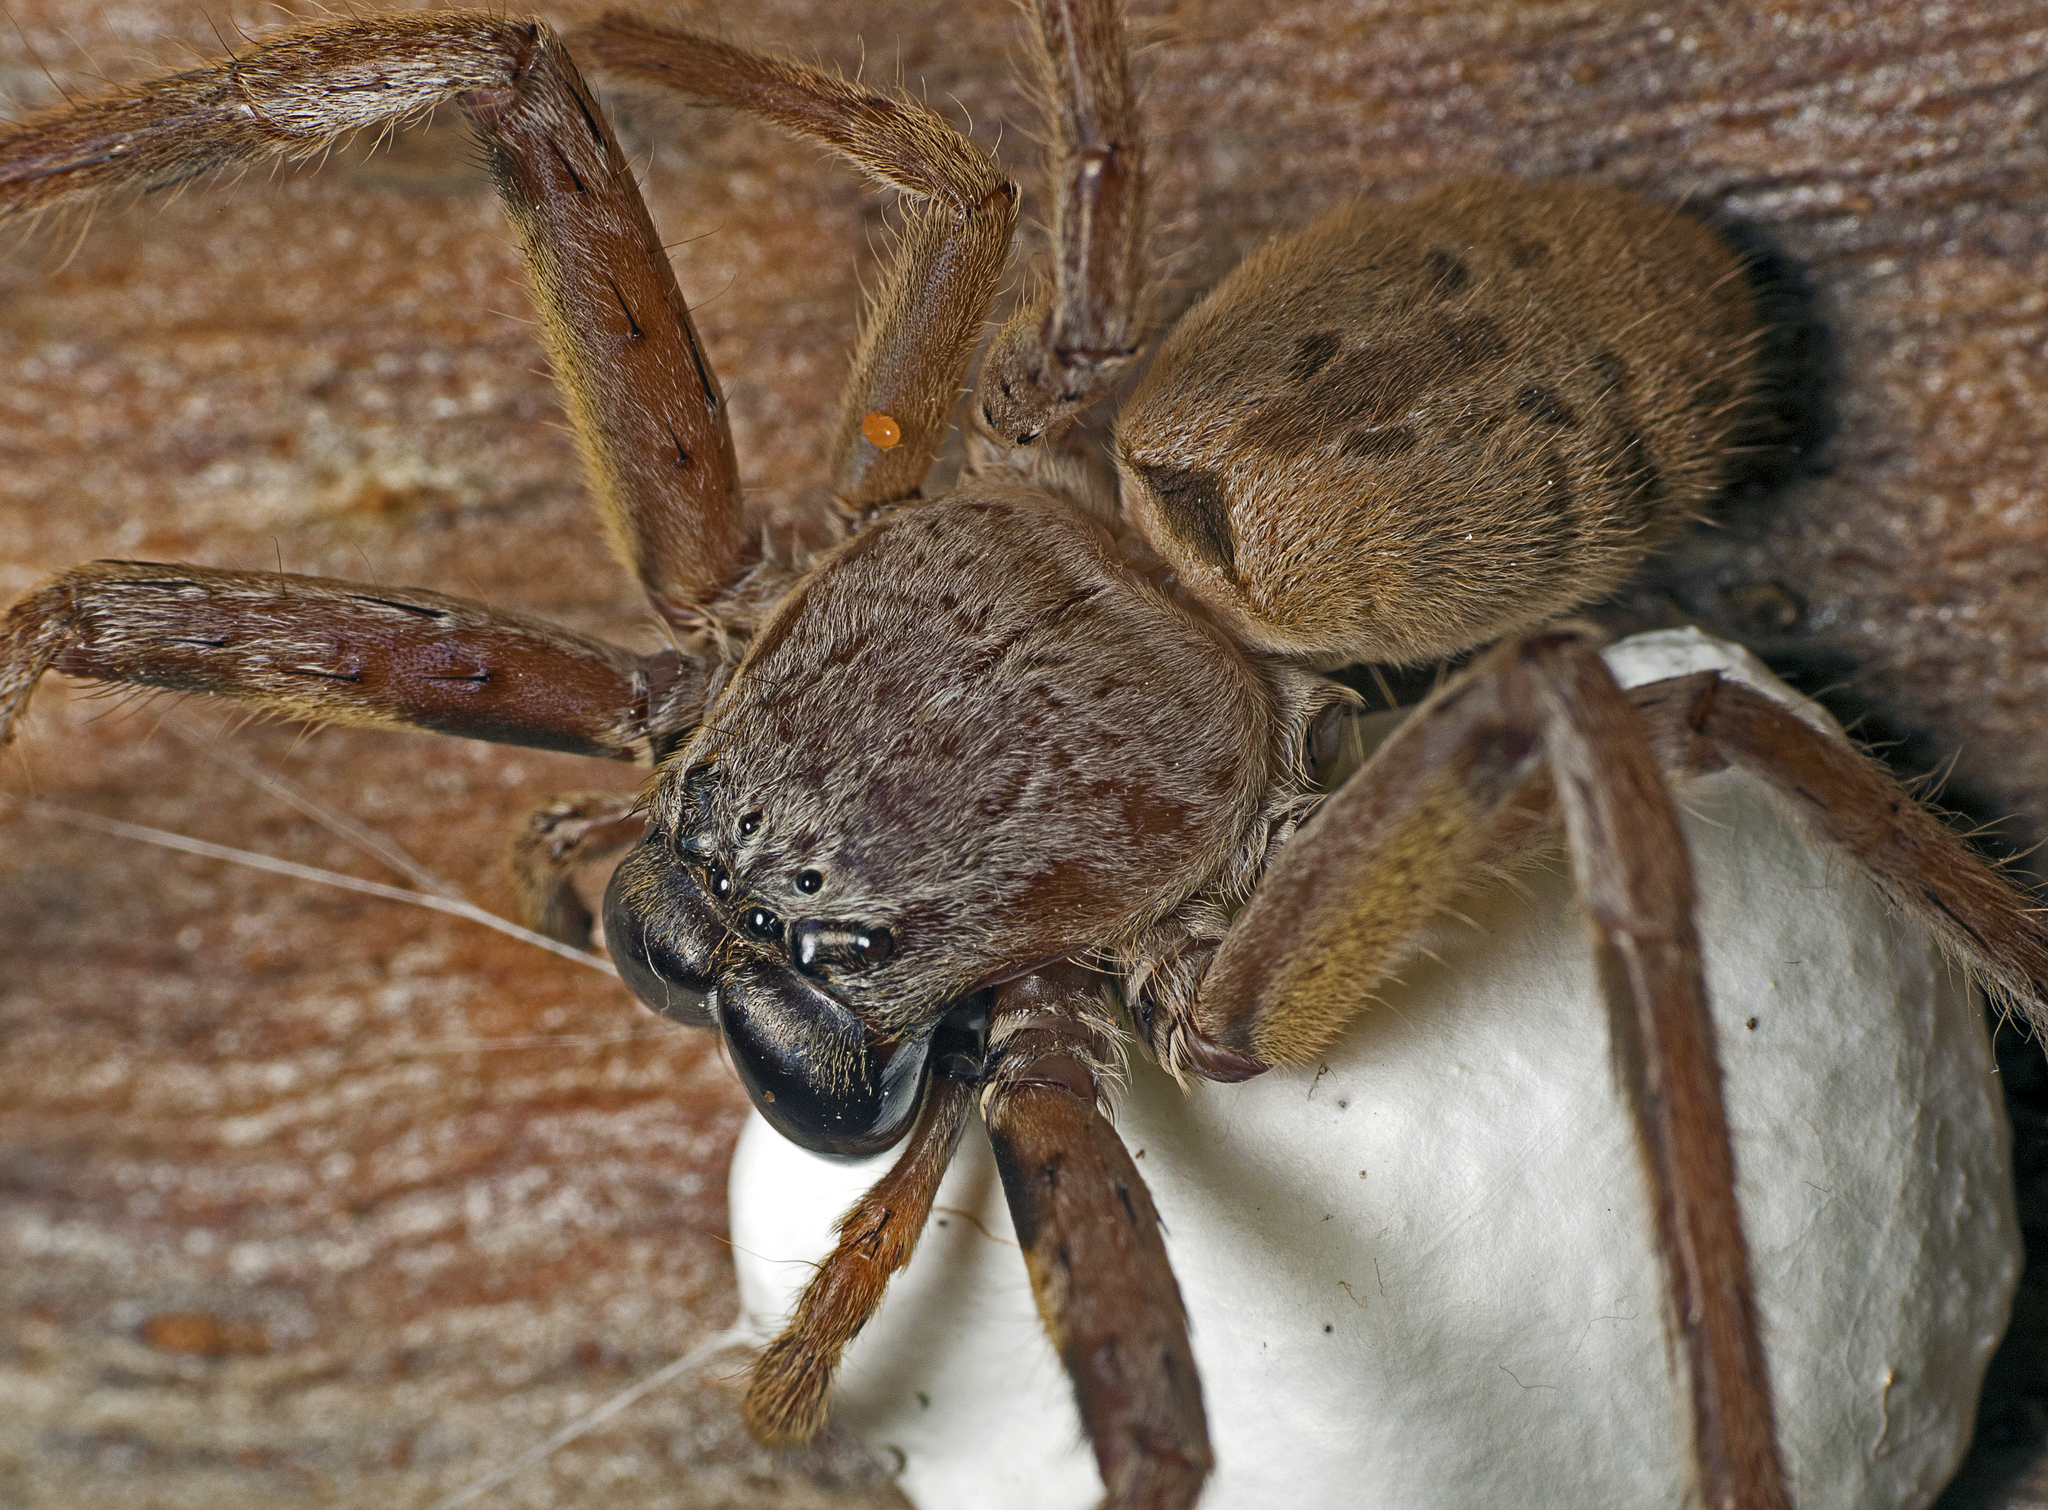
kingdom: Animalia
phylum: Arthropoda
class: Arachnida
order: Araneae
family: Sparassidae
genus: Isopeda
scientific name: Isopeda vasta
